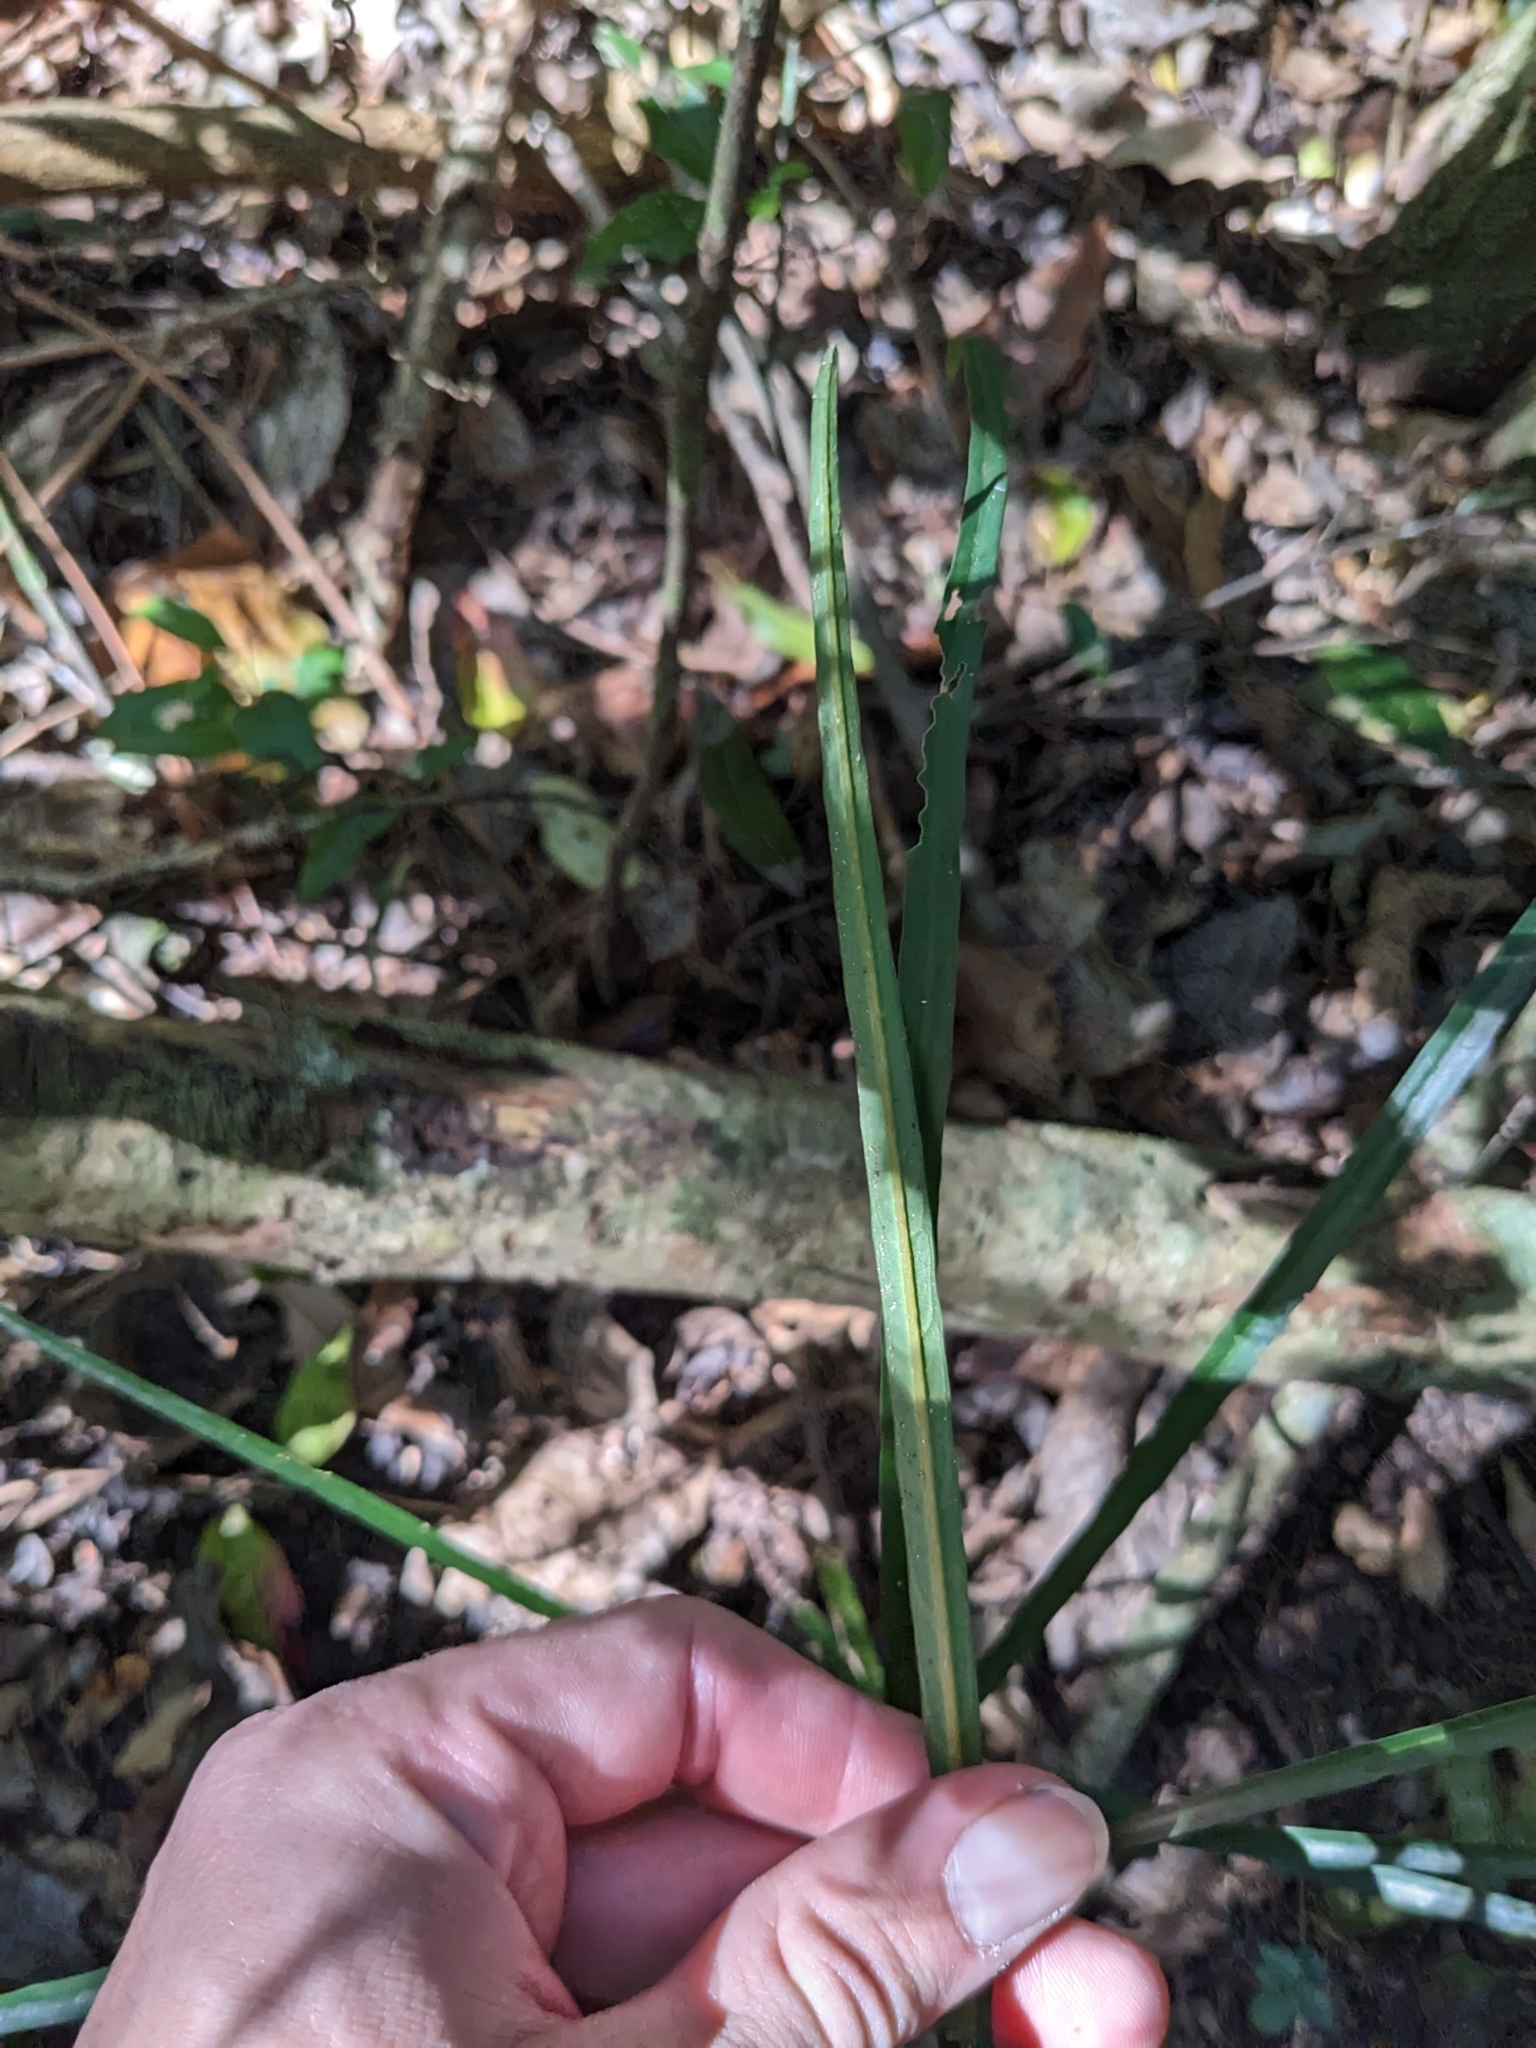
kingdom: Plantae
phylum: Tracheophyta
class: Magnoliopsida
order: Gentianales
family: Rubiaceae
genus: Atractocarpus
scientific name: Atractocarpus chartaceus
